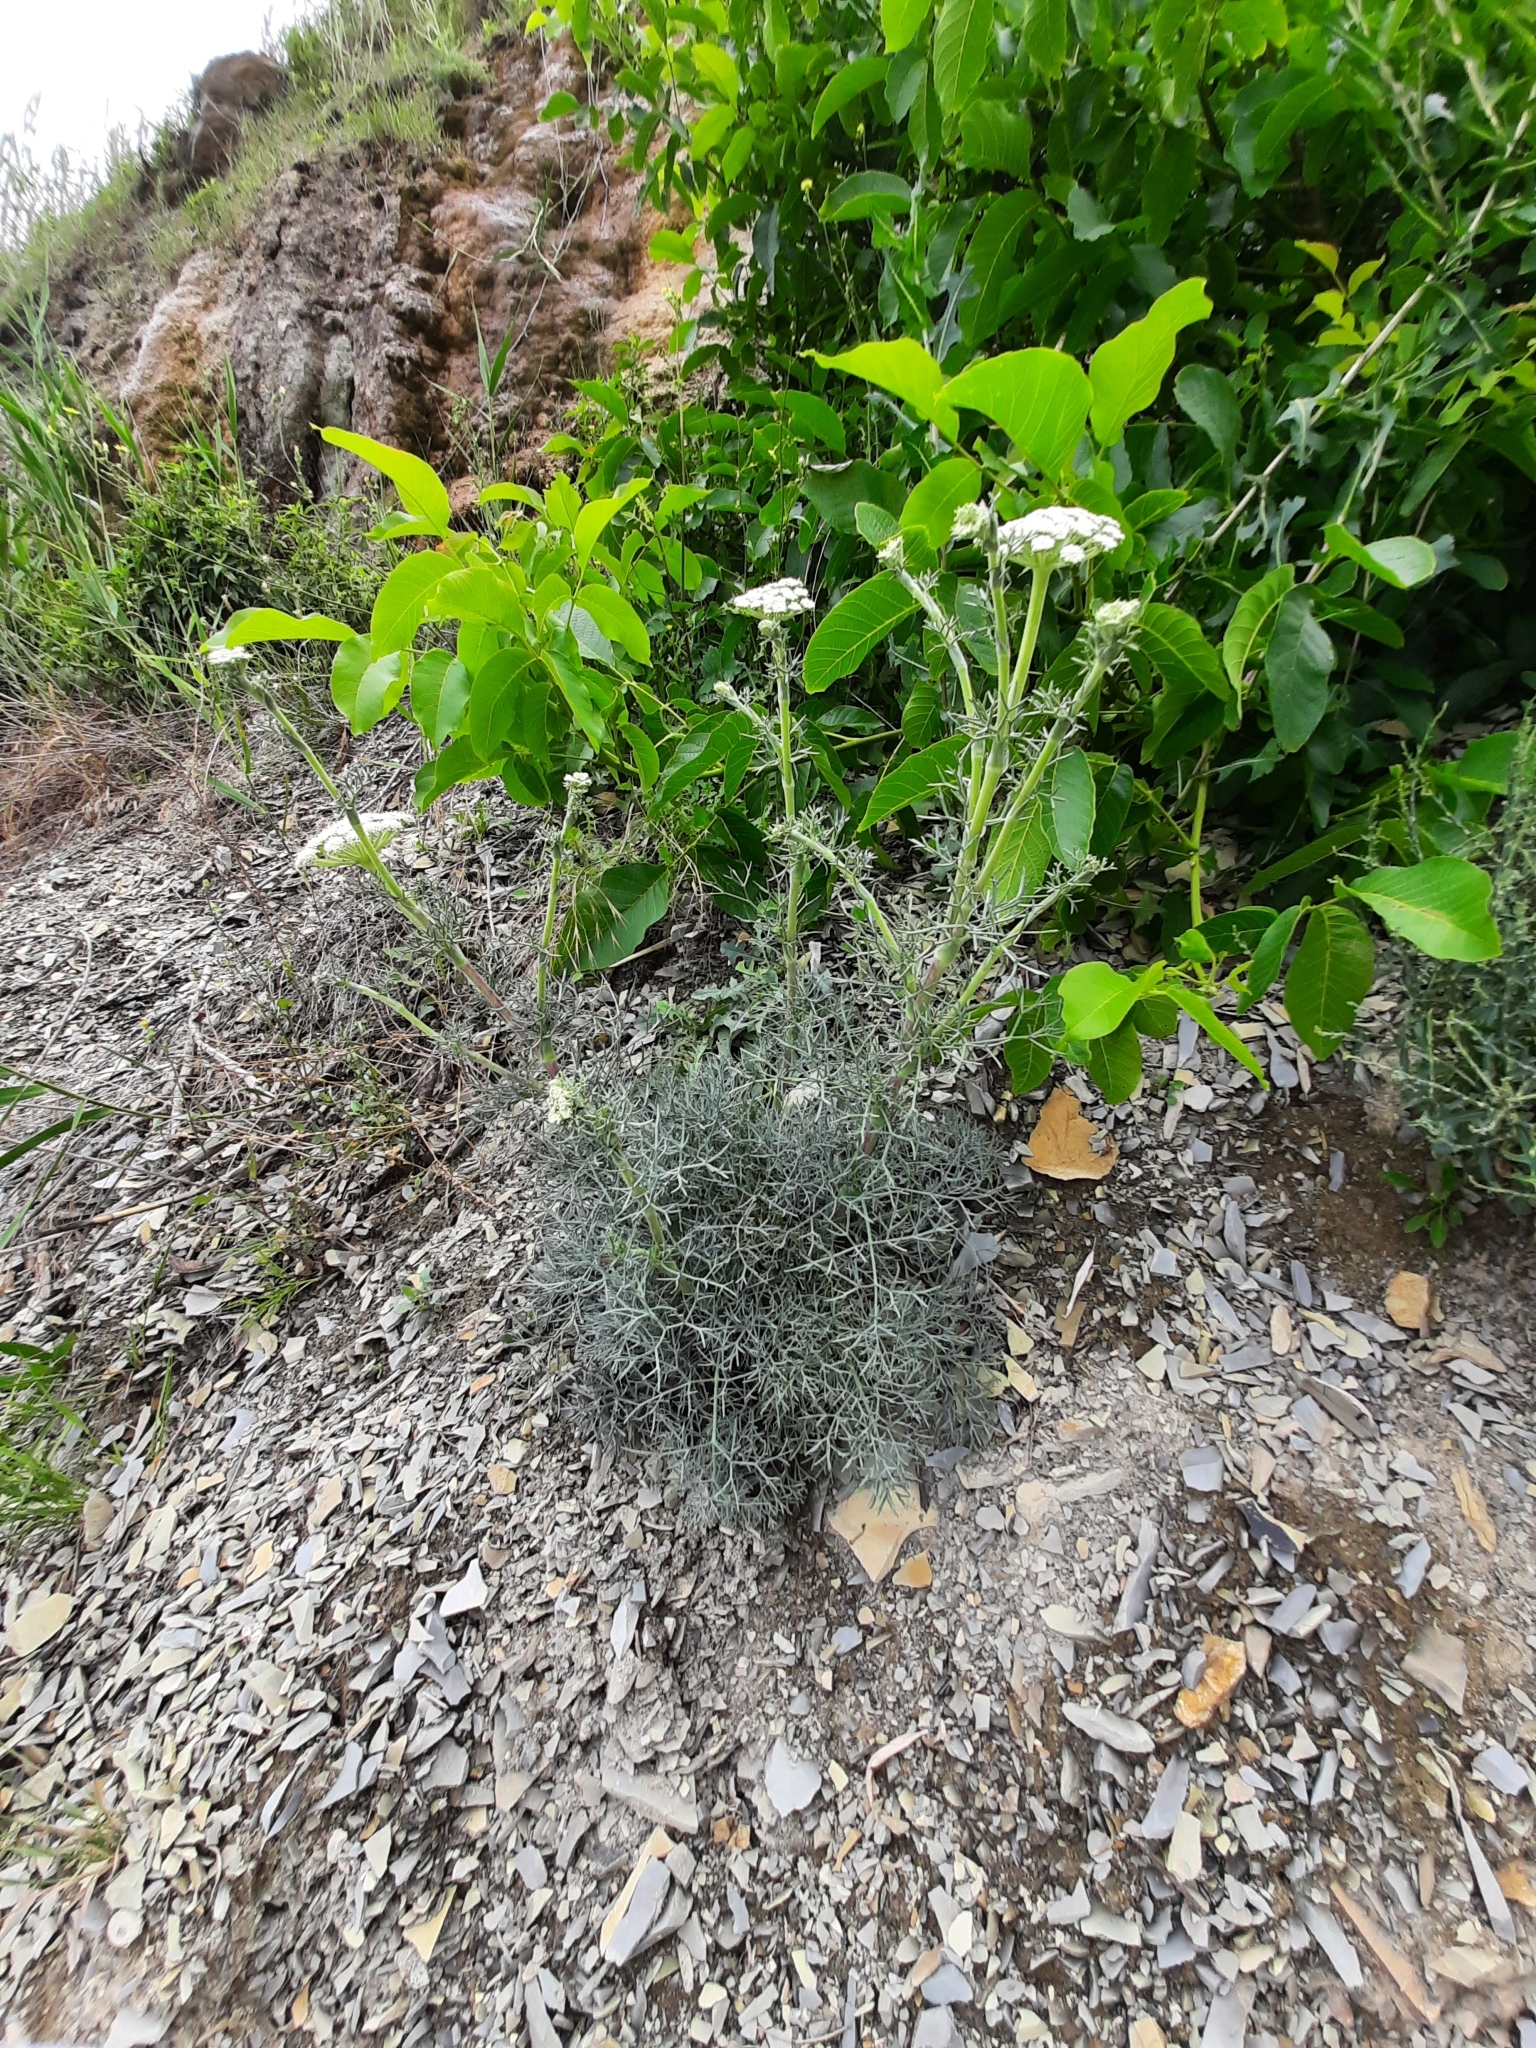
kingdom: Plantae
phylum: Tracheophyta
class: Magnoliopsida
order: Apiales
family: Apiaceae
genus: Seseli
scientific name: Seseli ponticum
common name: Pontic seseli
